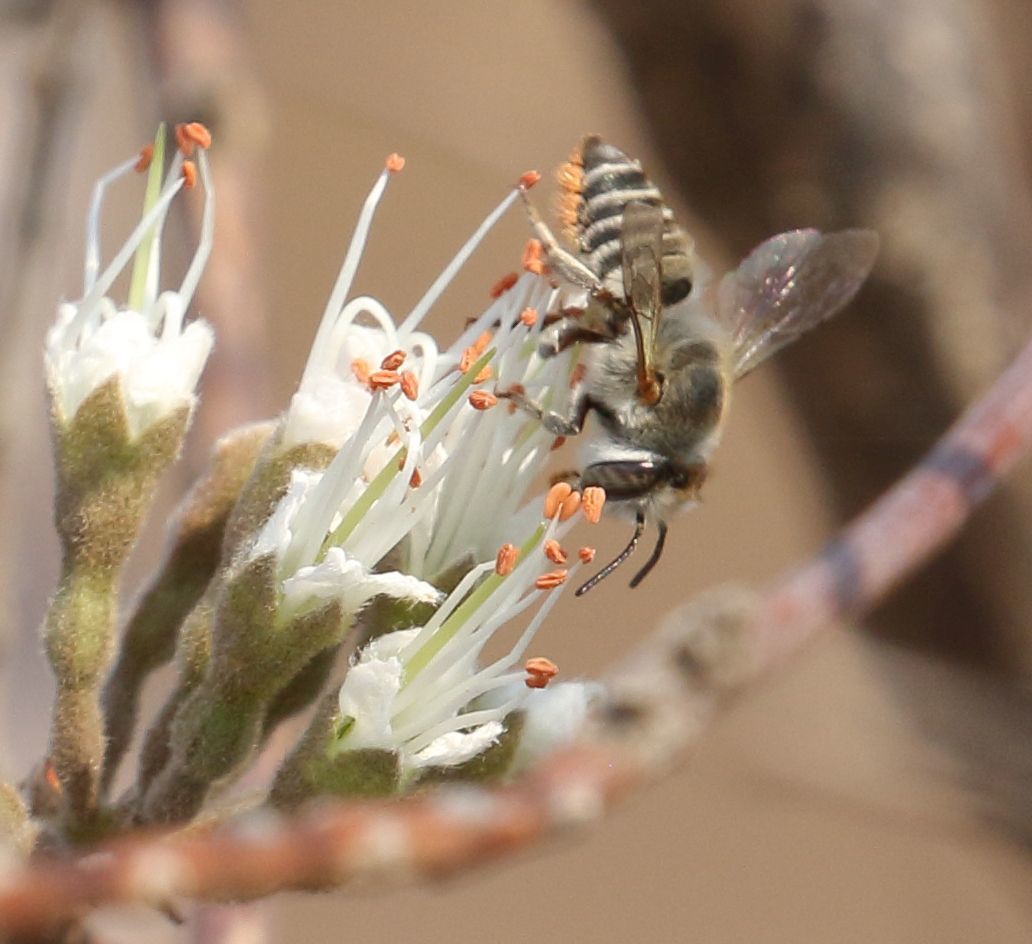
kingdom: Plantae
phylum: Tracheophyta
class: Magnoliopsida
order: Myrtales
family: Combretaceae
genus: Combretum
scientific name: Combretum mossambicense
